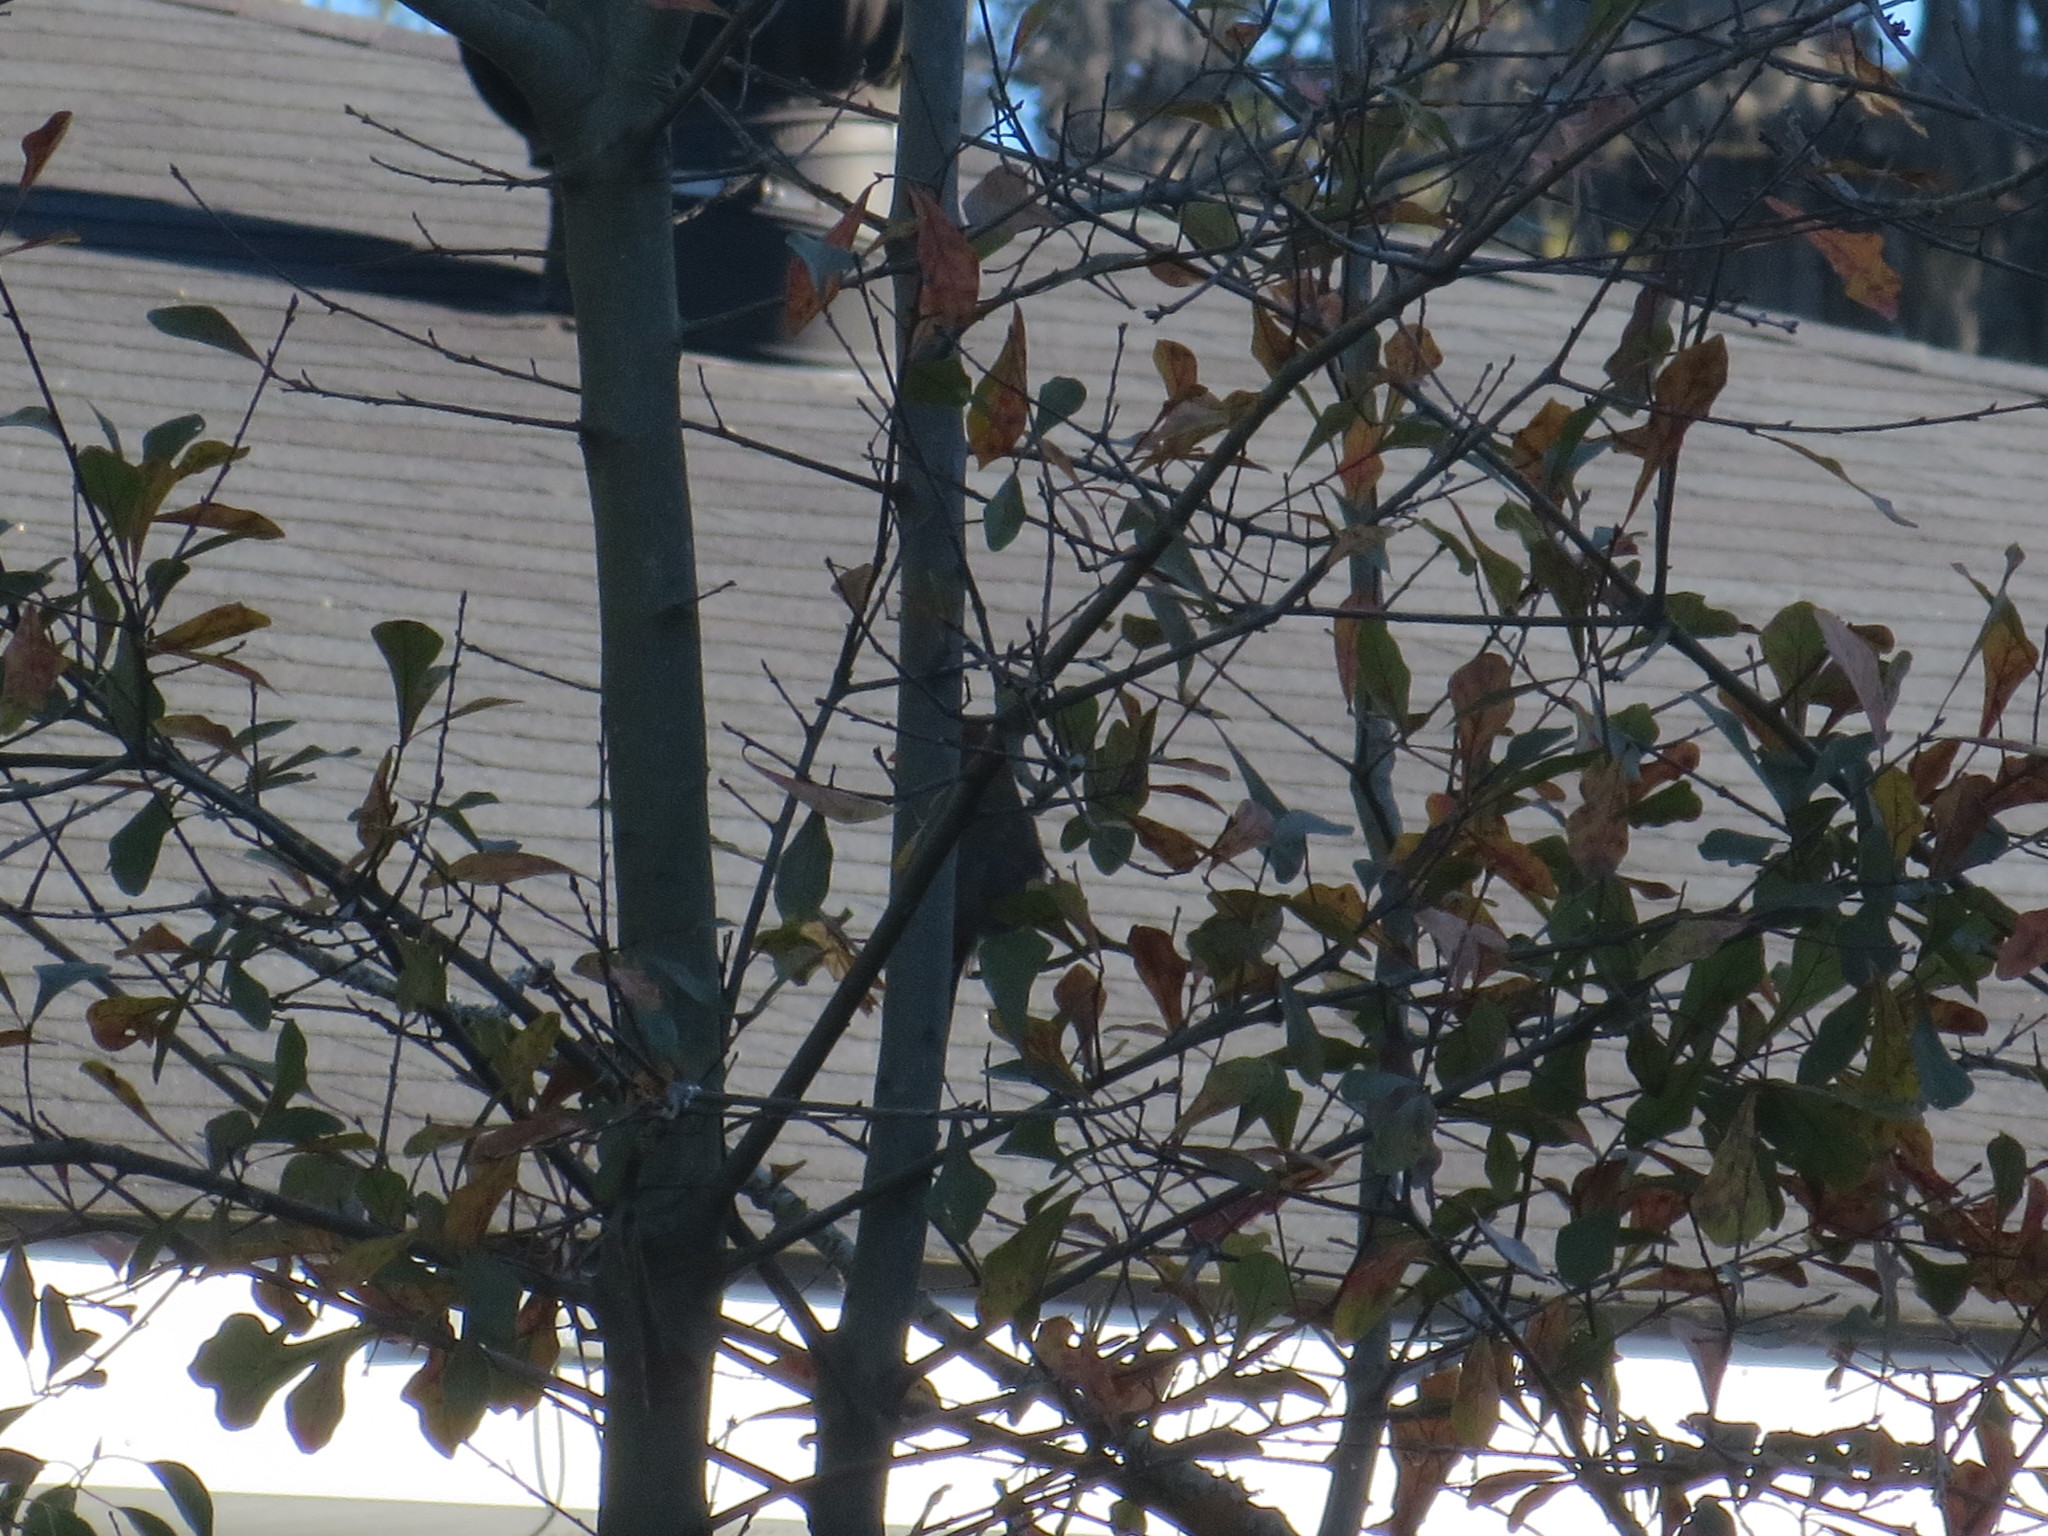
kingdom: Plantae
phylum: Tracheophyta
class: Magnoliopsida
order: Fagales
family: Fagaceae
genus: Quercus
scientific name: Quercus nigra
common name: Water oak
